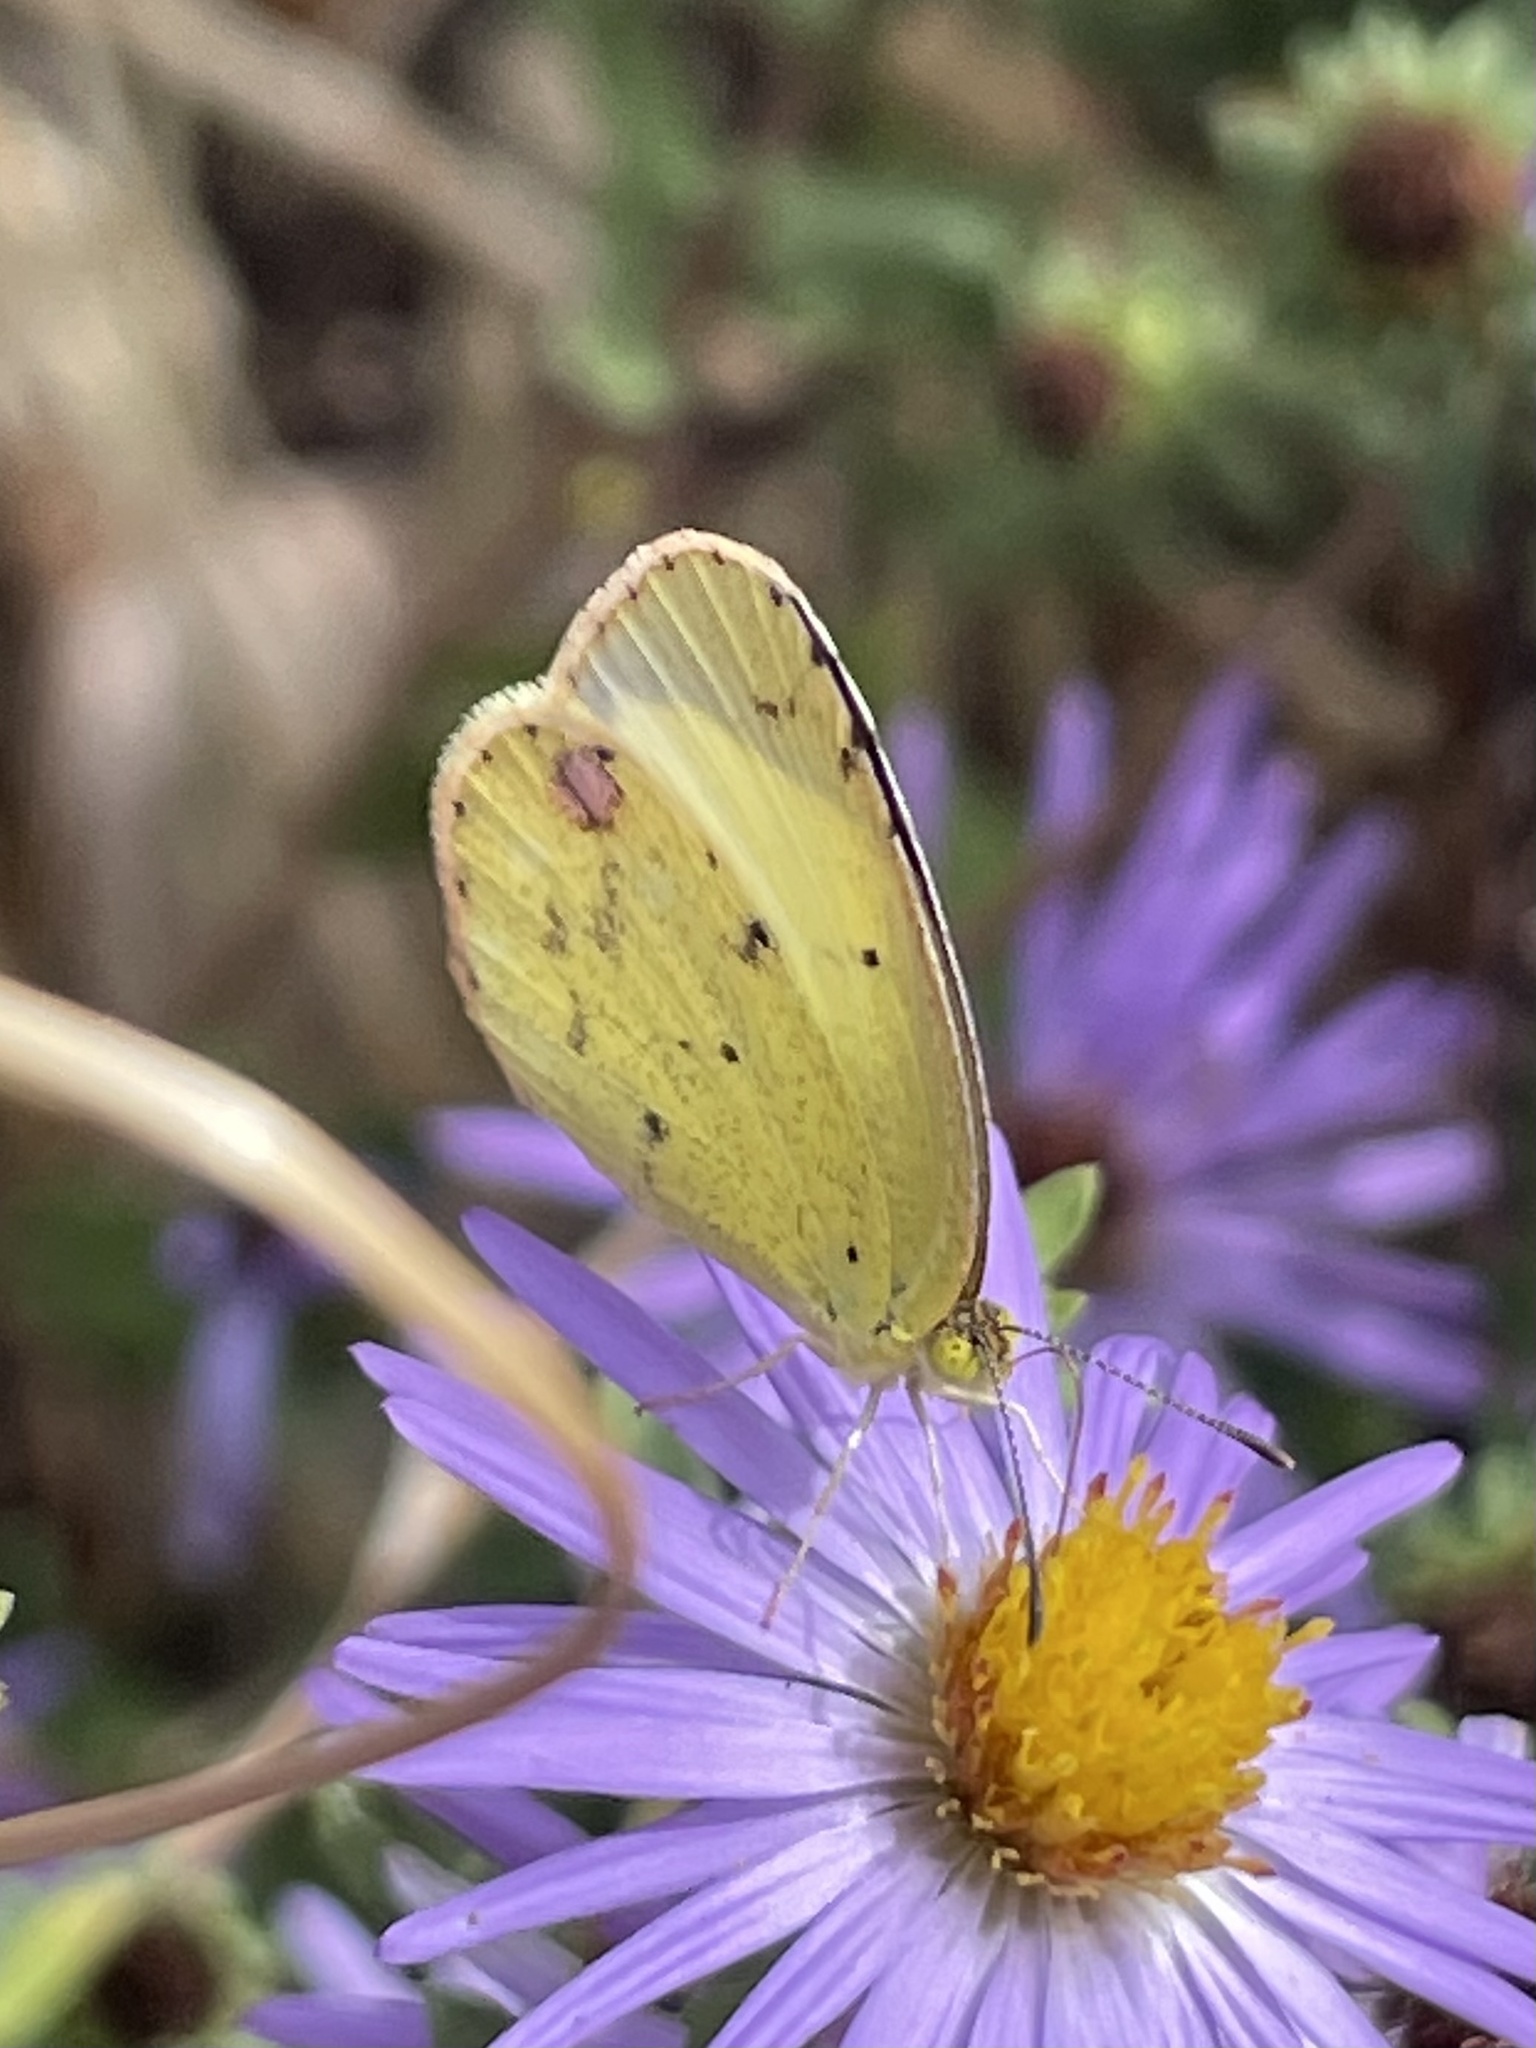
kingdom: Animalia
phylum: Arthropoda
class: Insecta
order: Lepidoptera
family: Pieridae
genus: Pyrisitia
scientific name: Pyrisitia lisa
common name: Little yellow
